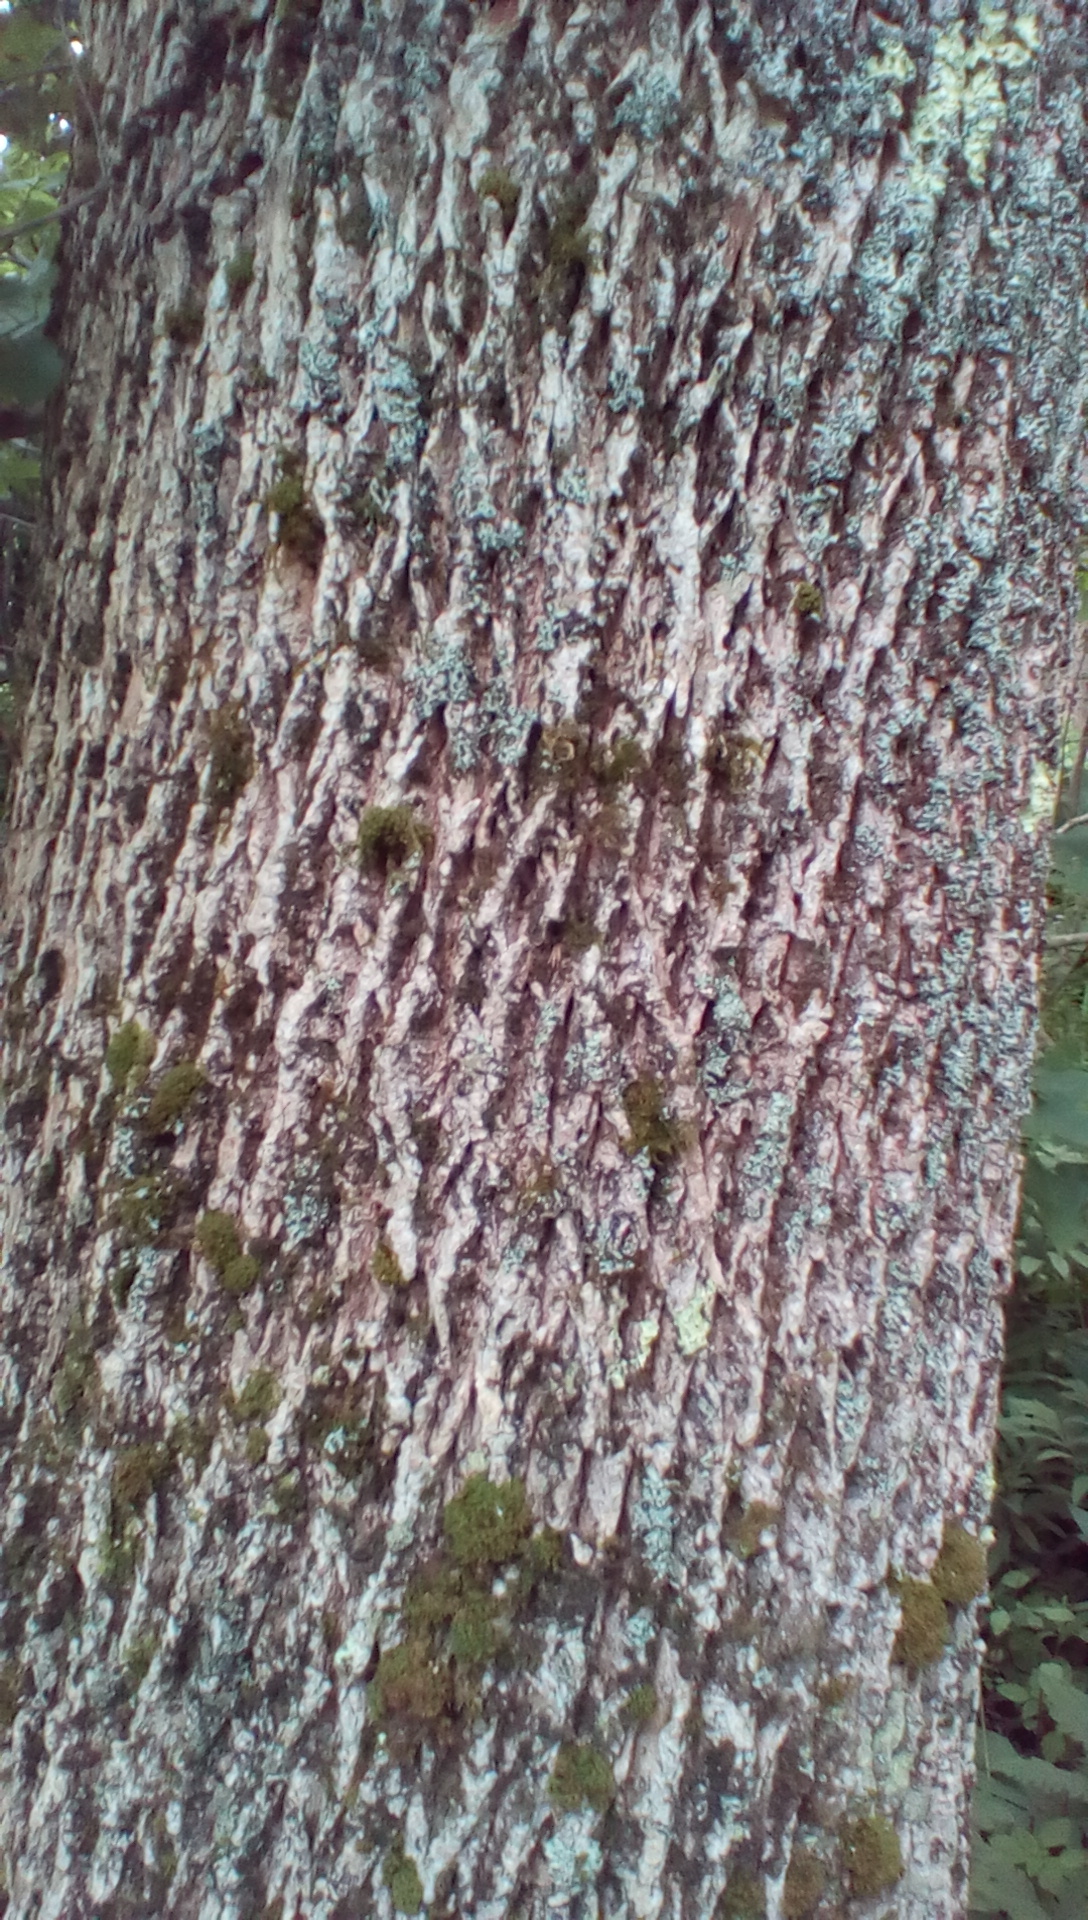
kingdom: Plantae
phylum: Tracheophyta
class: Magnoliopsida
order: Lamiales
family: Oleaceae
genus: Fraxinus
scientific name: Fraxinus
